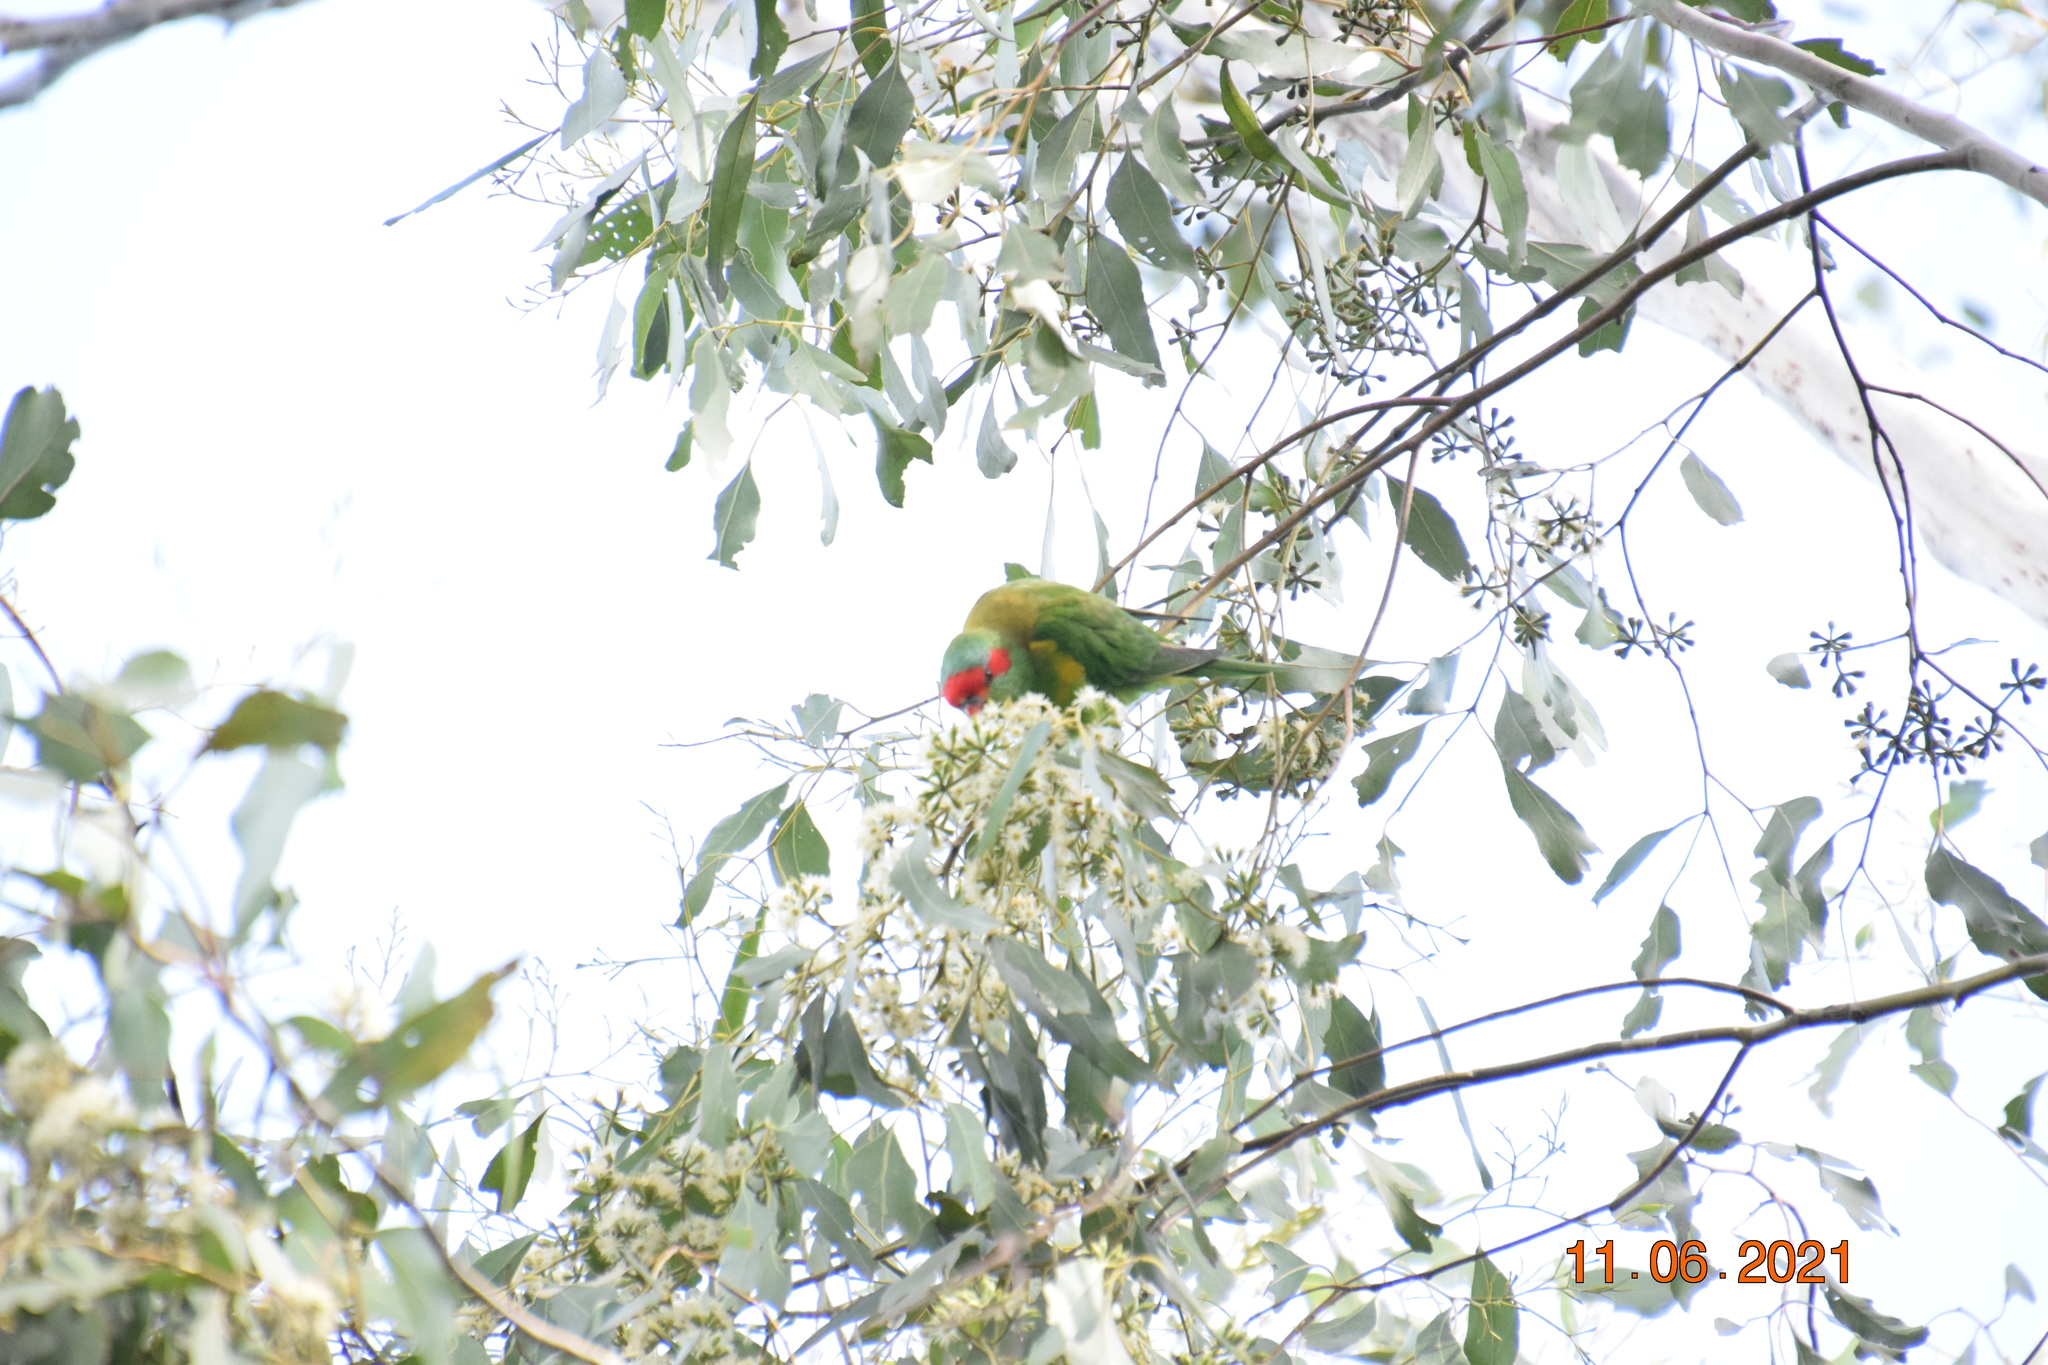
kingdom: Animalia
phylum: Chordata
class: Aves
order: Psittaciformes
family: Psittacidae
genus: Glossopsitta
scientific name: Glossopsitta concinna
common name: Musk lorikeet
